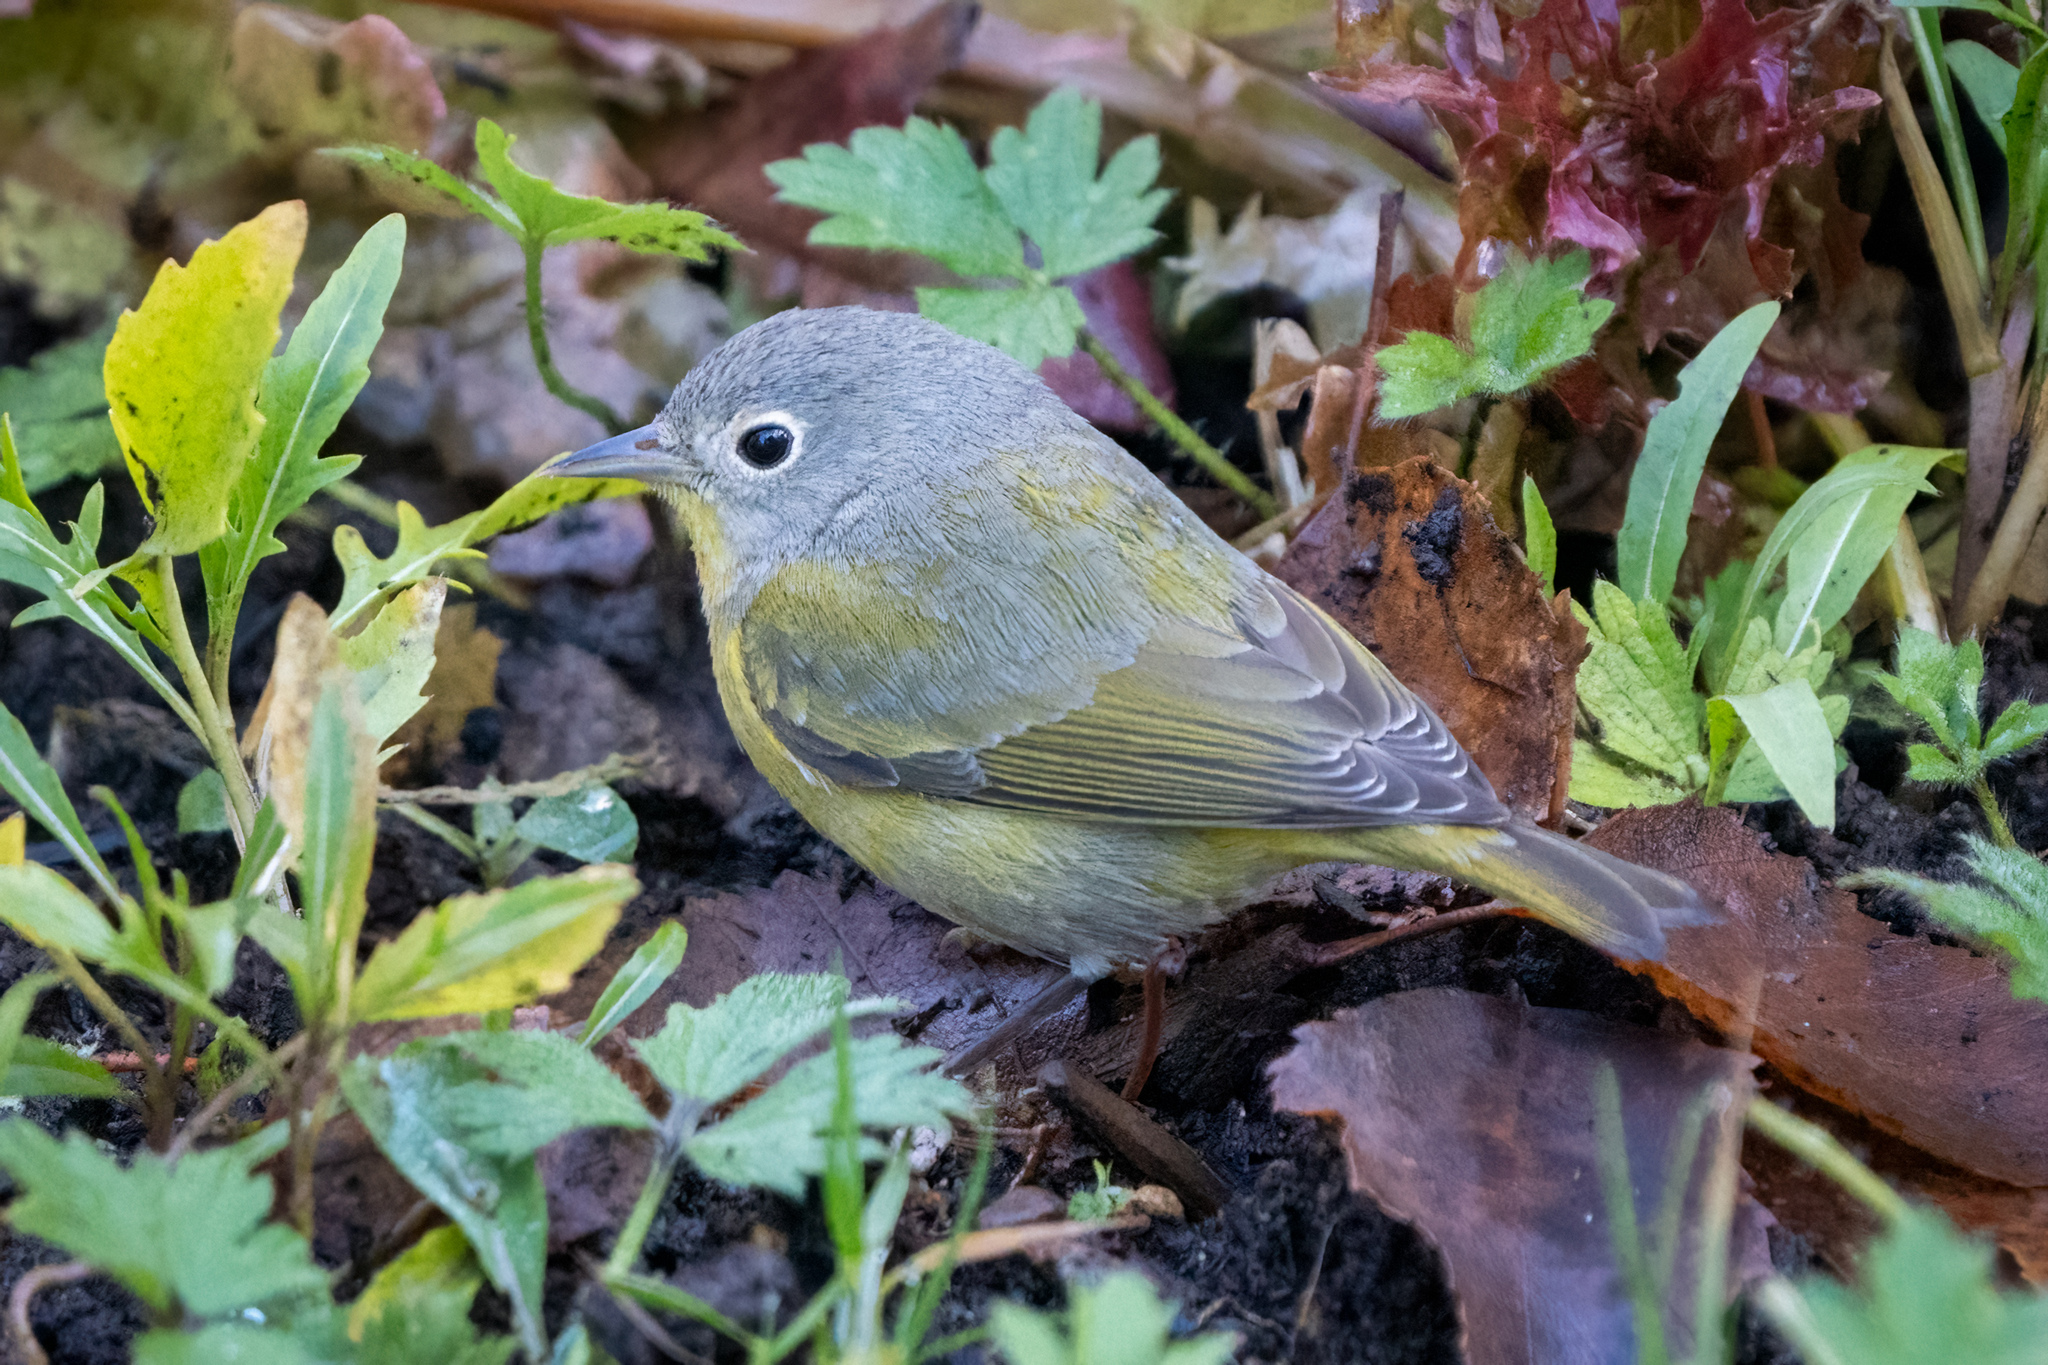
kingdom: Animalia
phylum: Chordata
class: Aves
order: Passeriformes
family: Parulidae
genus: Leiothlypis
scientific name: Leiothlypis ruficapilla
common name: Nashville warbler
